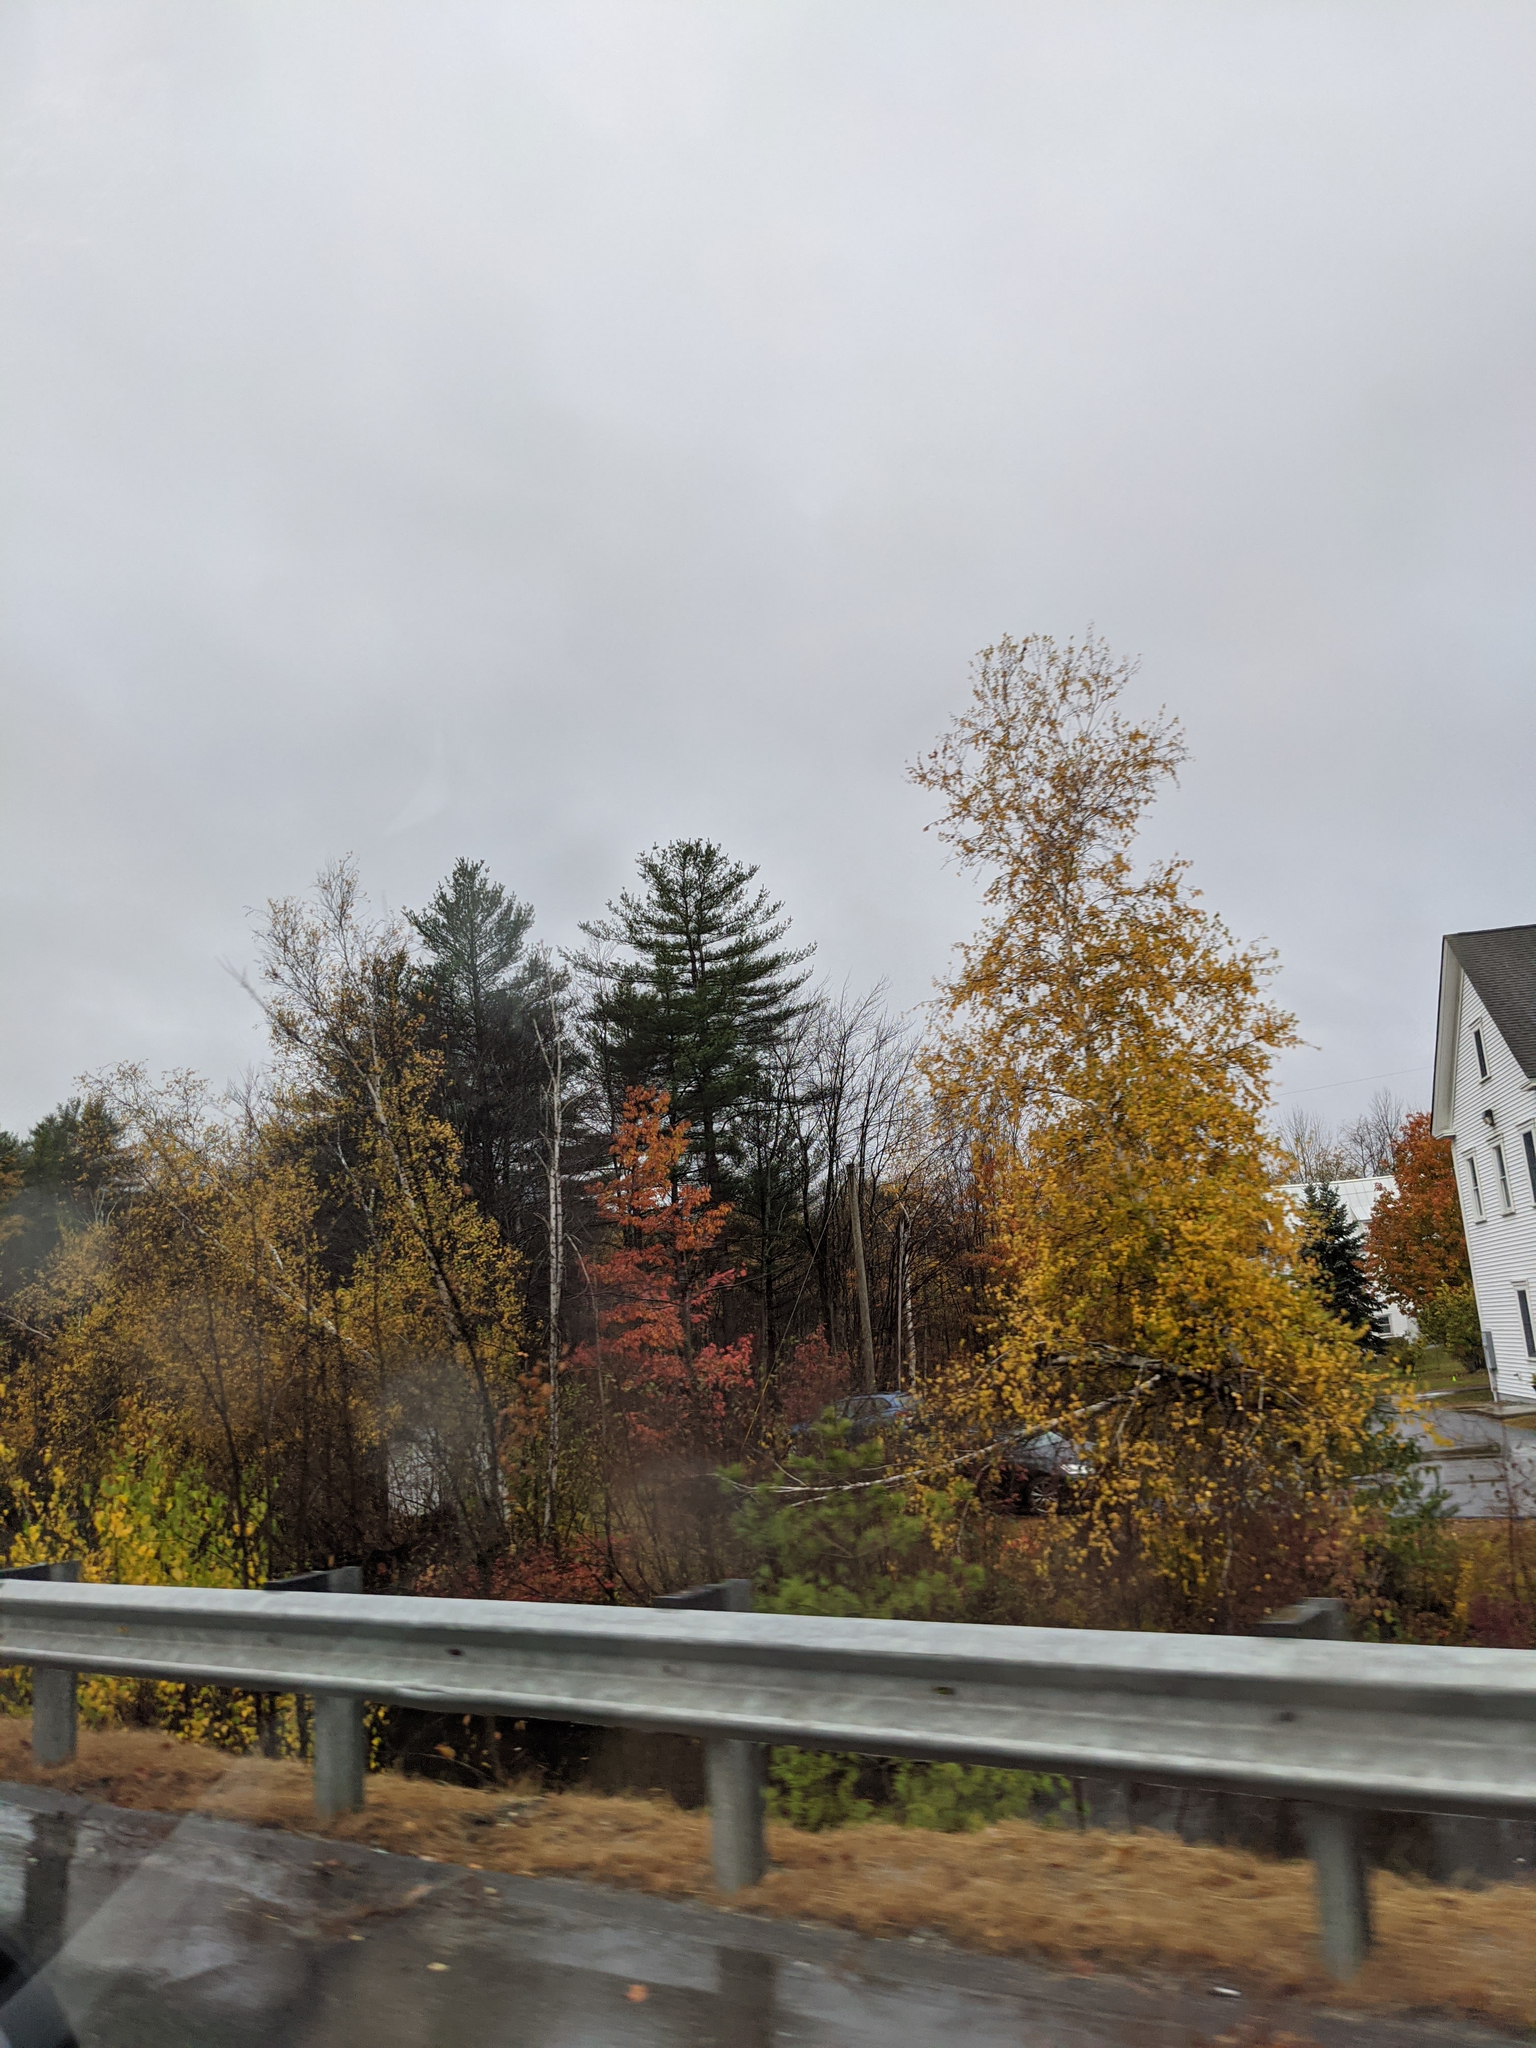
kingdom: Plantae
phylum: Tracheophyta
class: Pinopsida
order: Pinales
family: Pinaceae
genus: Pinus
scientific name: Pinus strobus
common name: Weymouth pine
